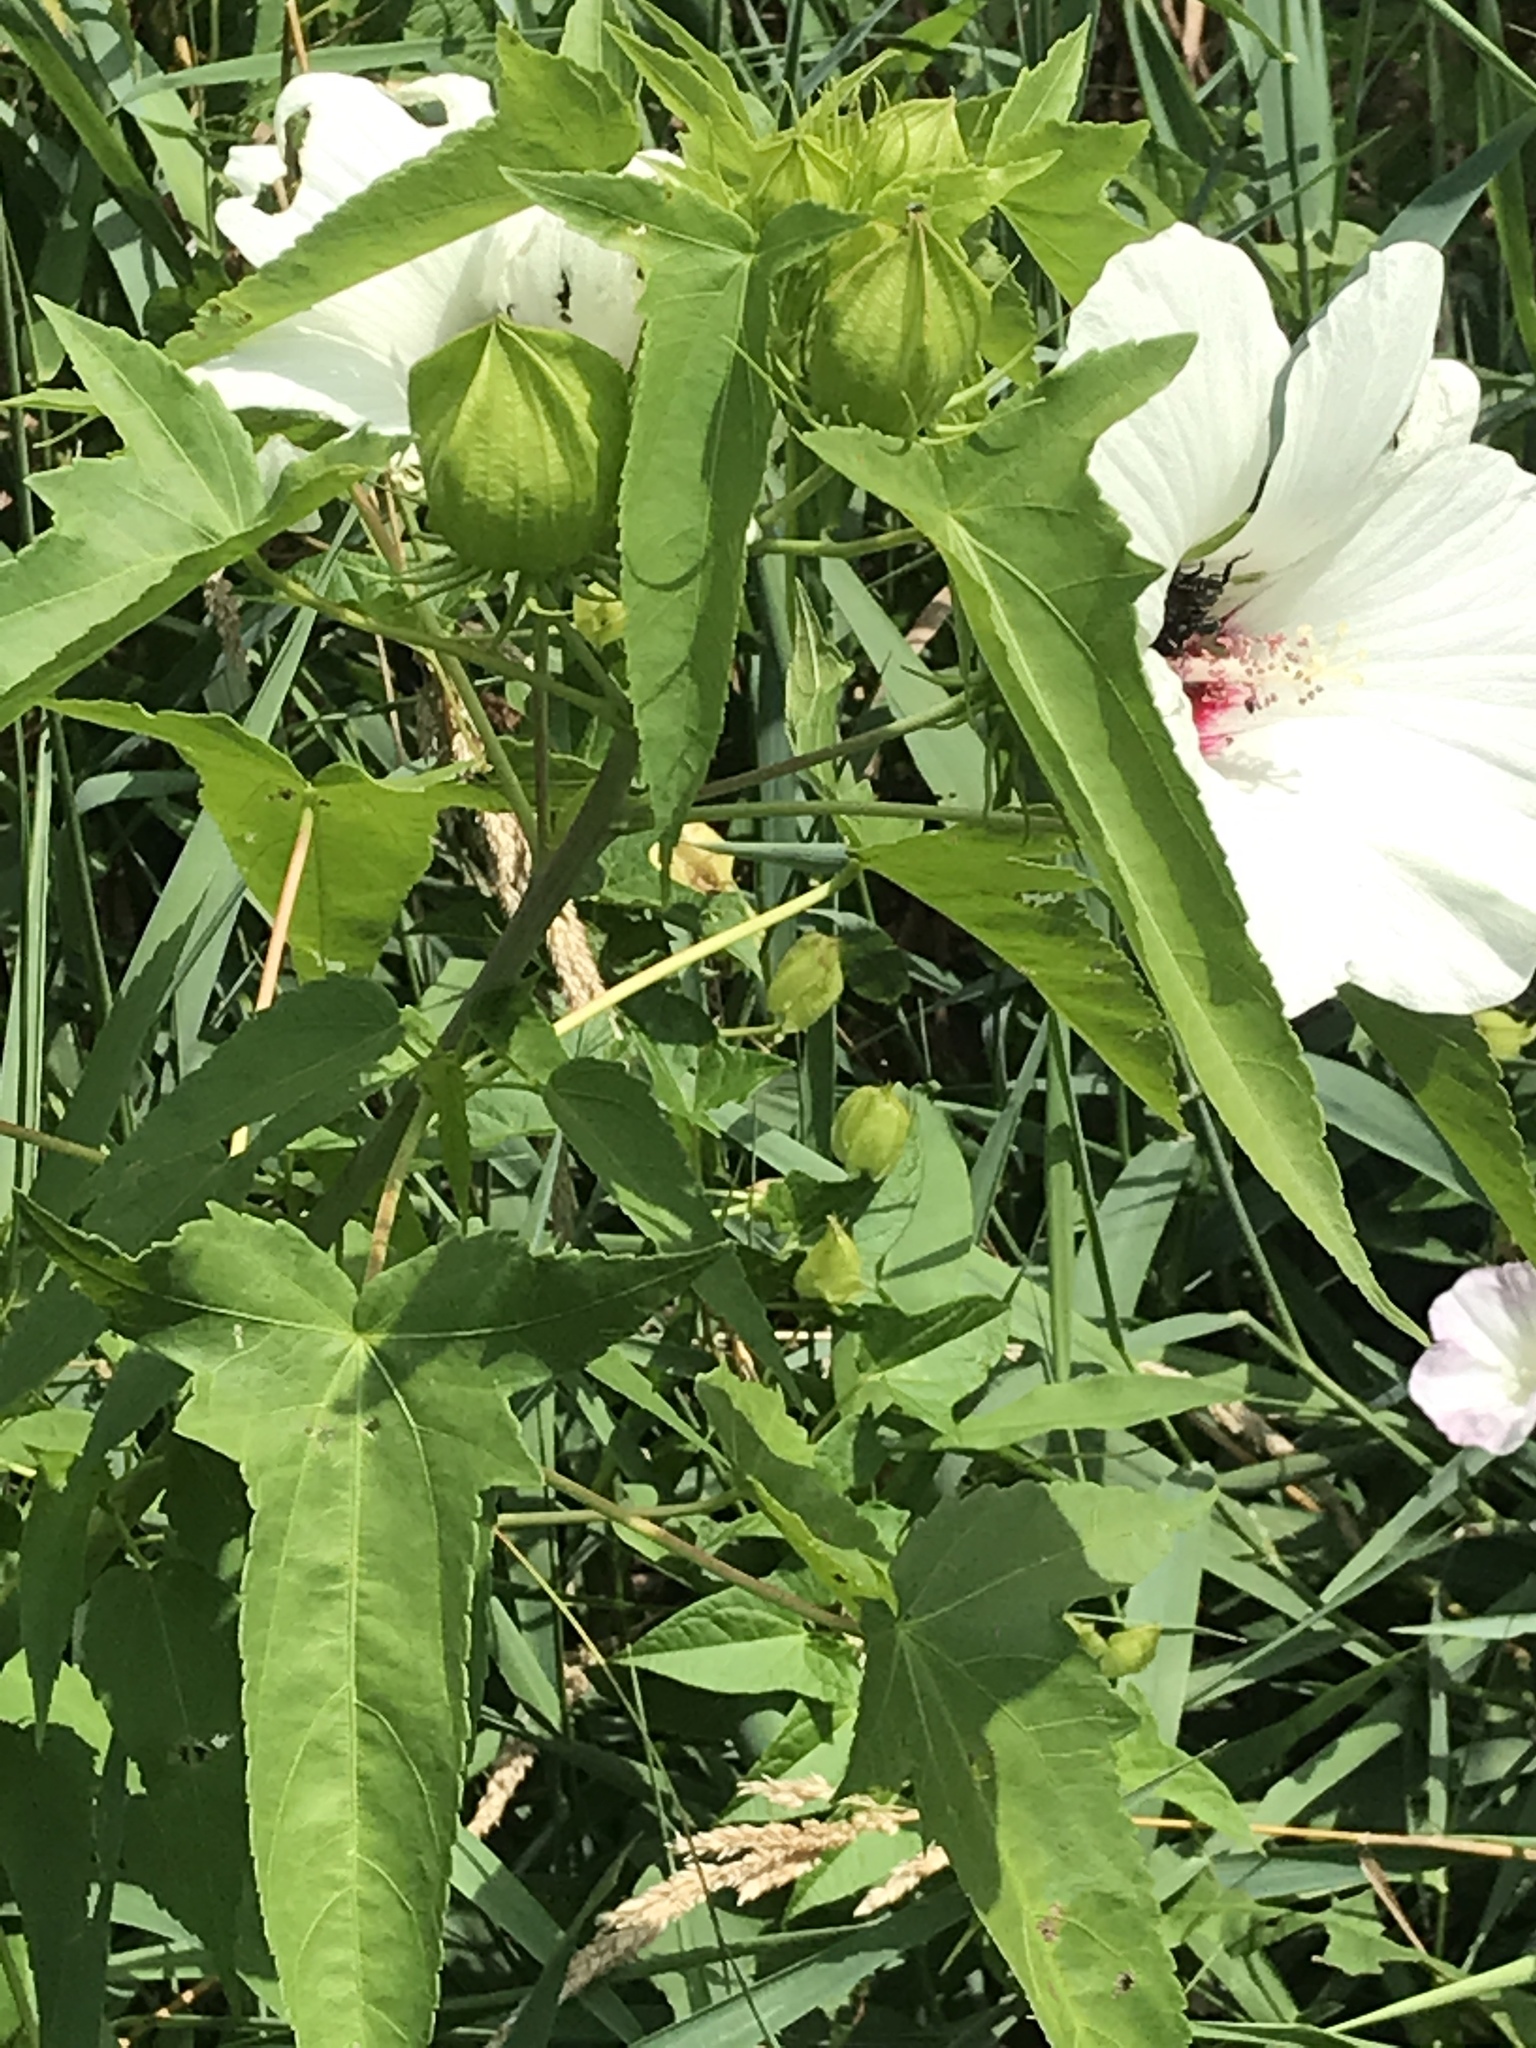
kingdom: Plantae
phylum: Tracheophyta
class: Magnoliopsida
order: Malvales
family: Malvaceae
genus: Hibiscus
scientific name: Hibiscus laevis
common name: Scarlet rose-mallow
